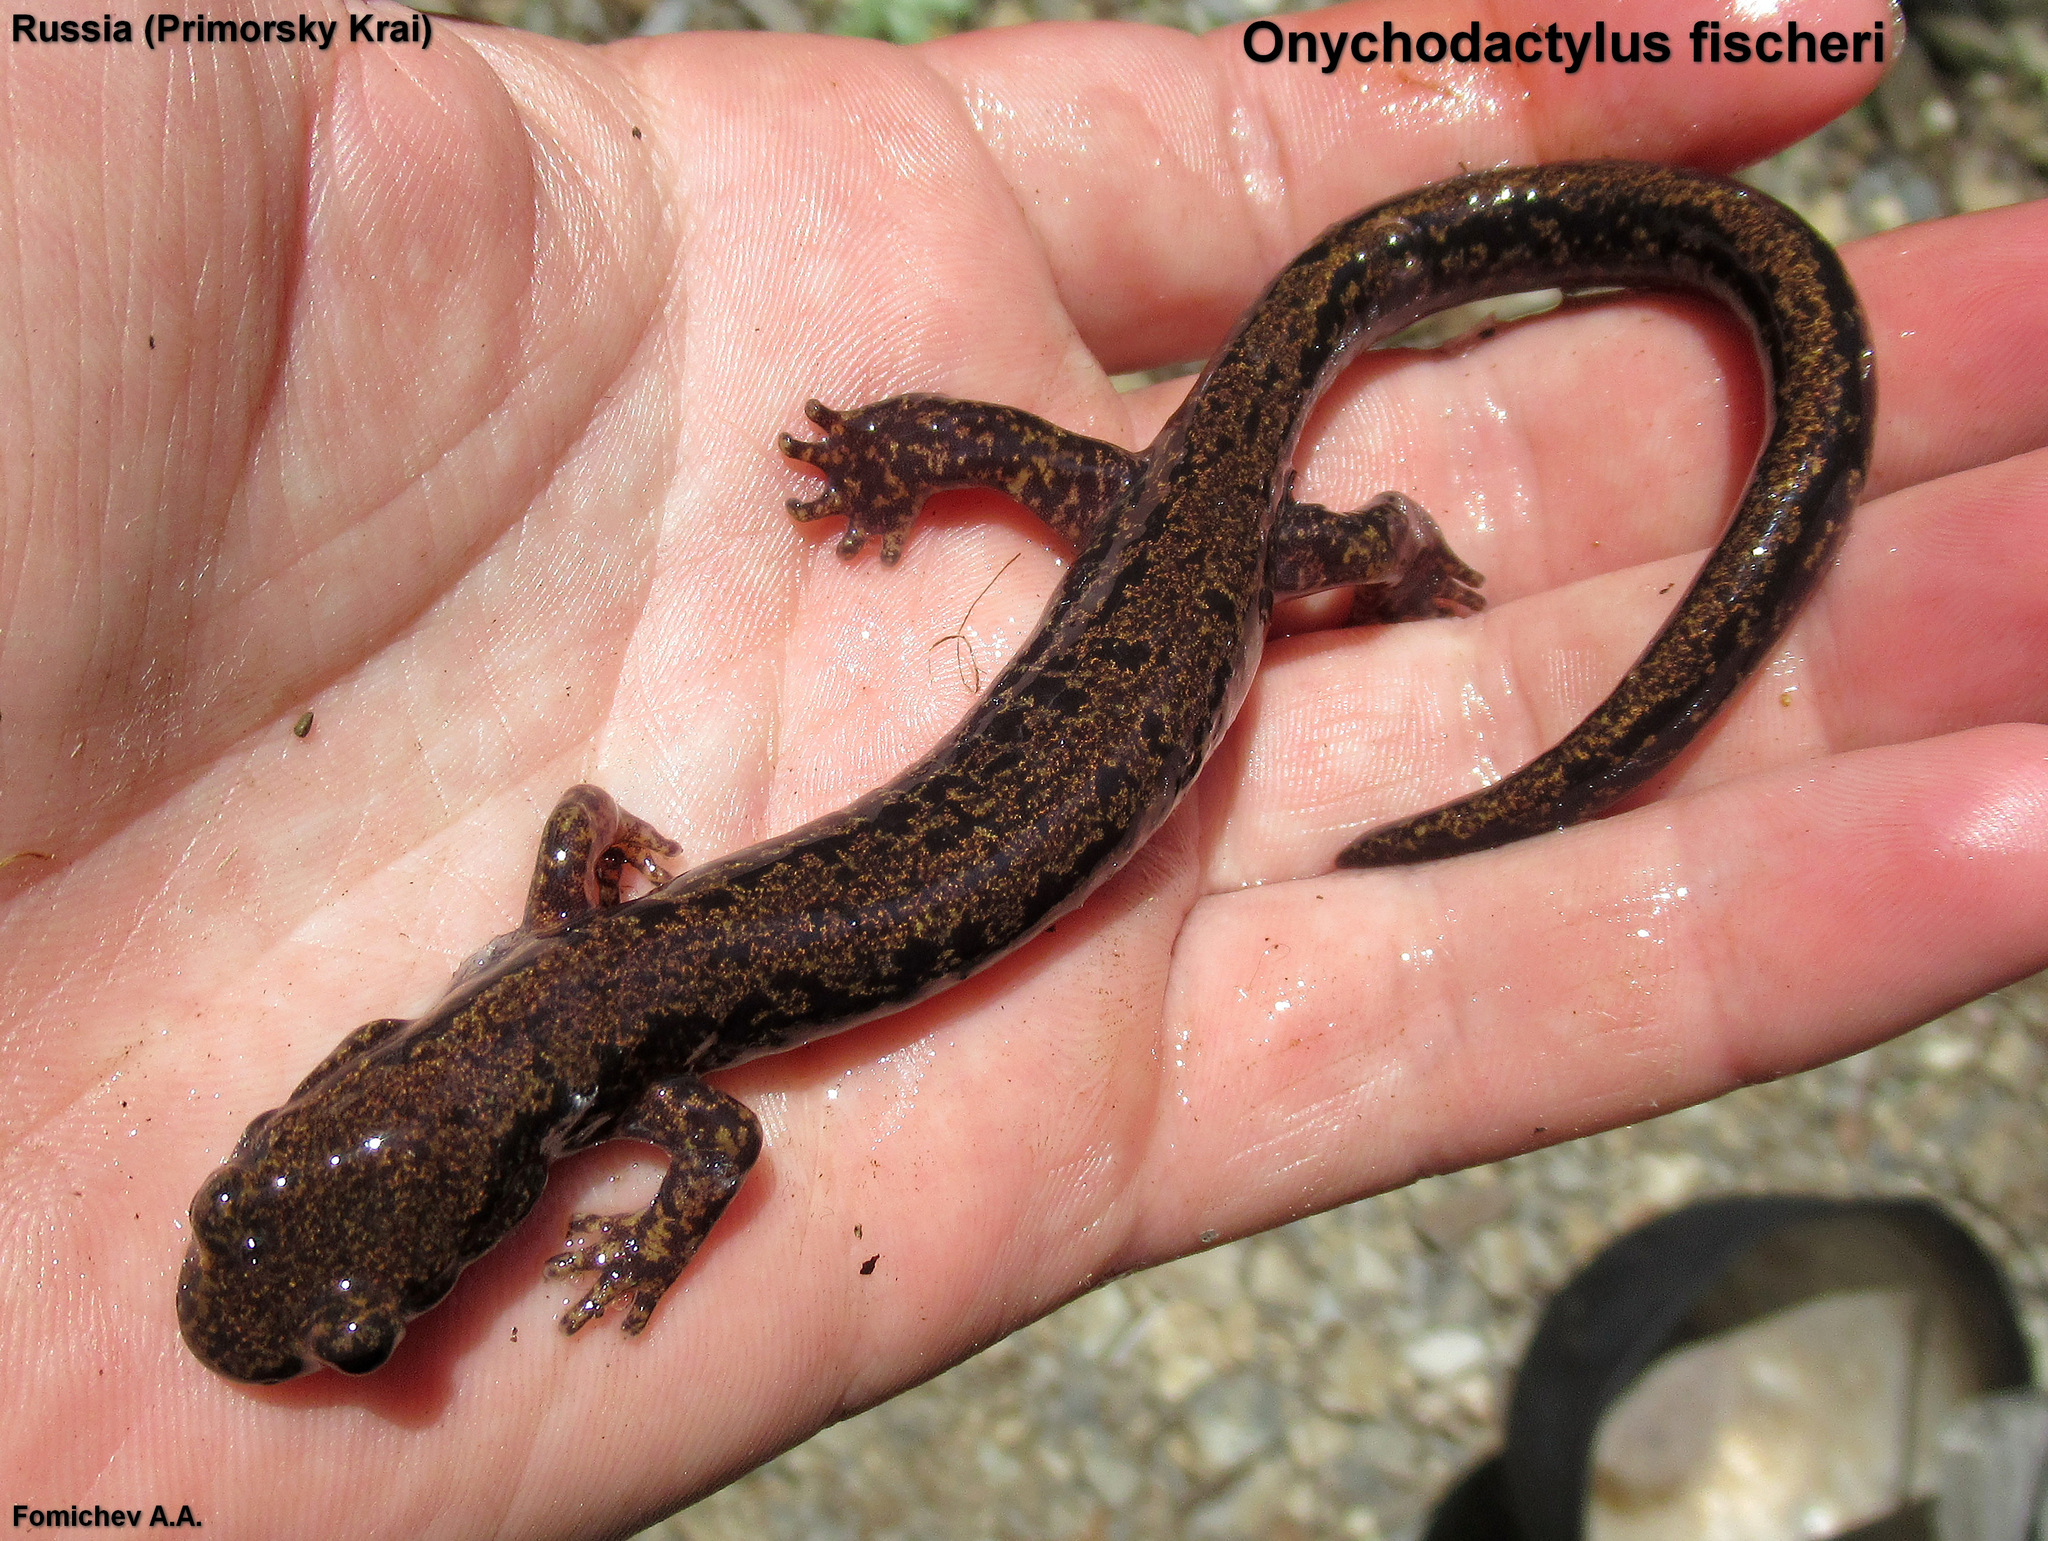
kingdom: Animalia
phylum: Chordata
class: Amphibia
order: Caudata
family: Hynobiidae
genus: Onychodactylus
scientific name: Onychodactylus fischeri
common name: Fischer's clawed salamander
